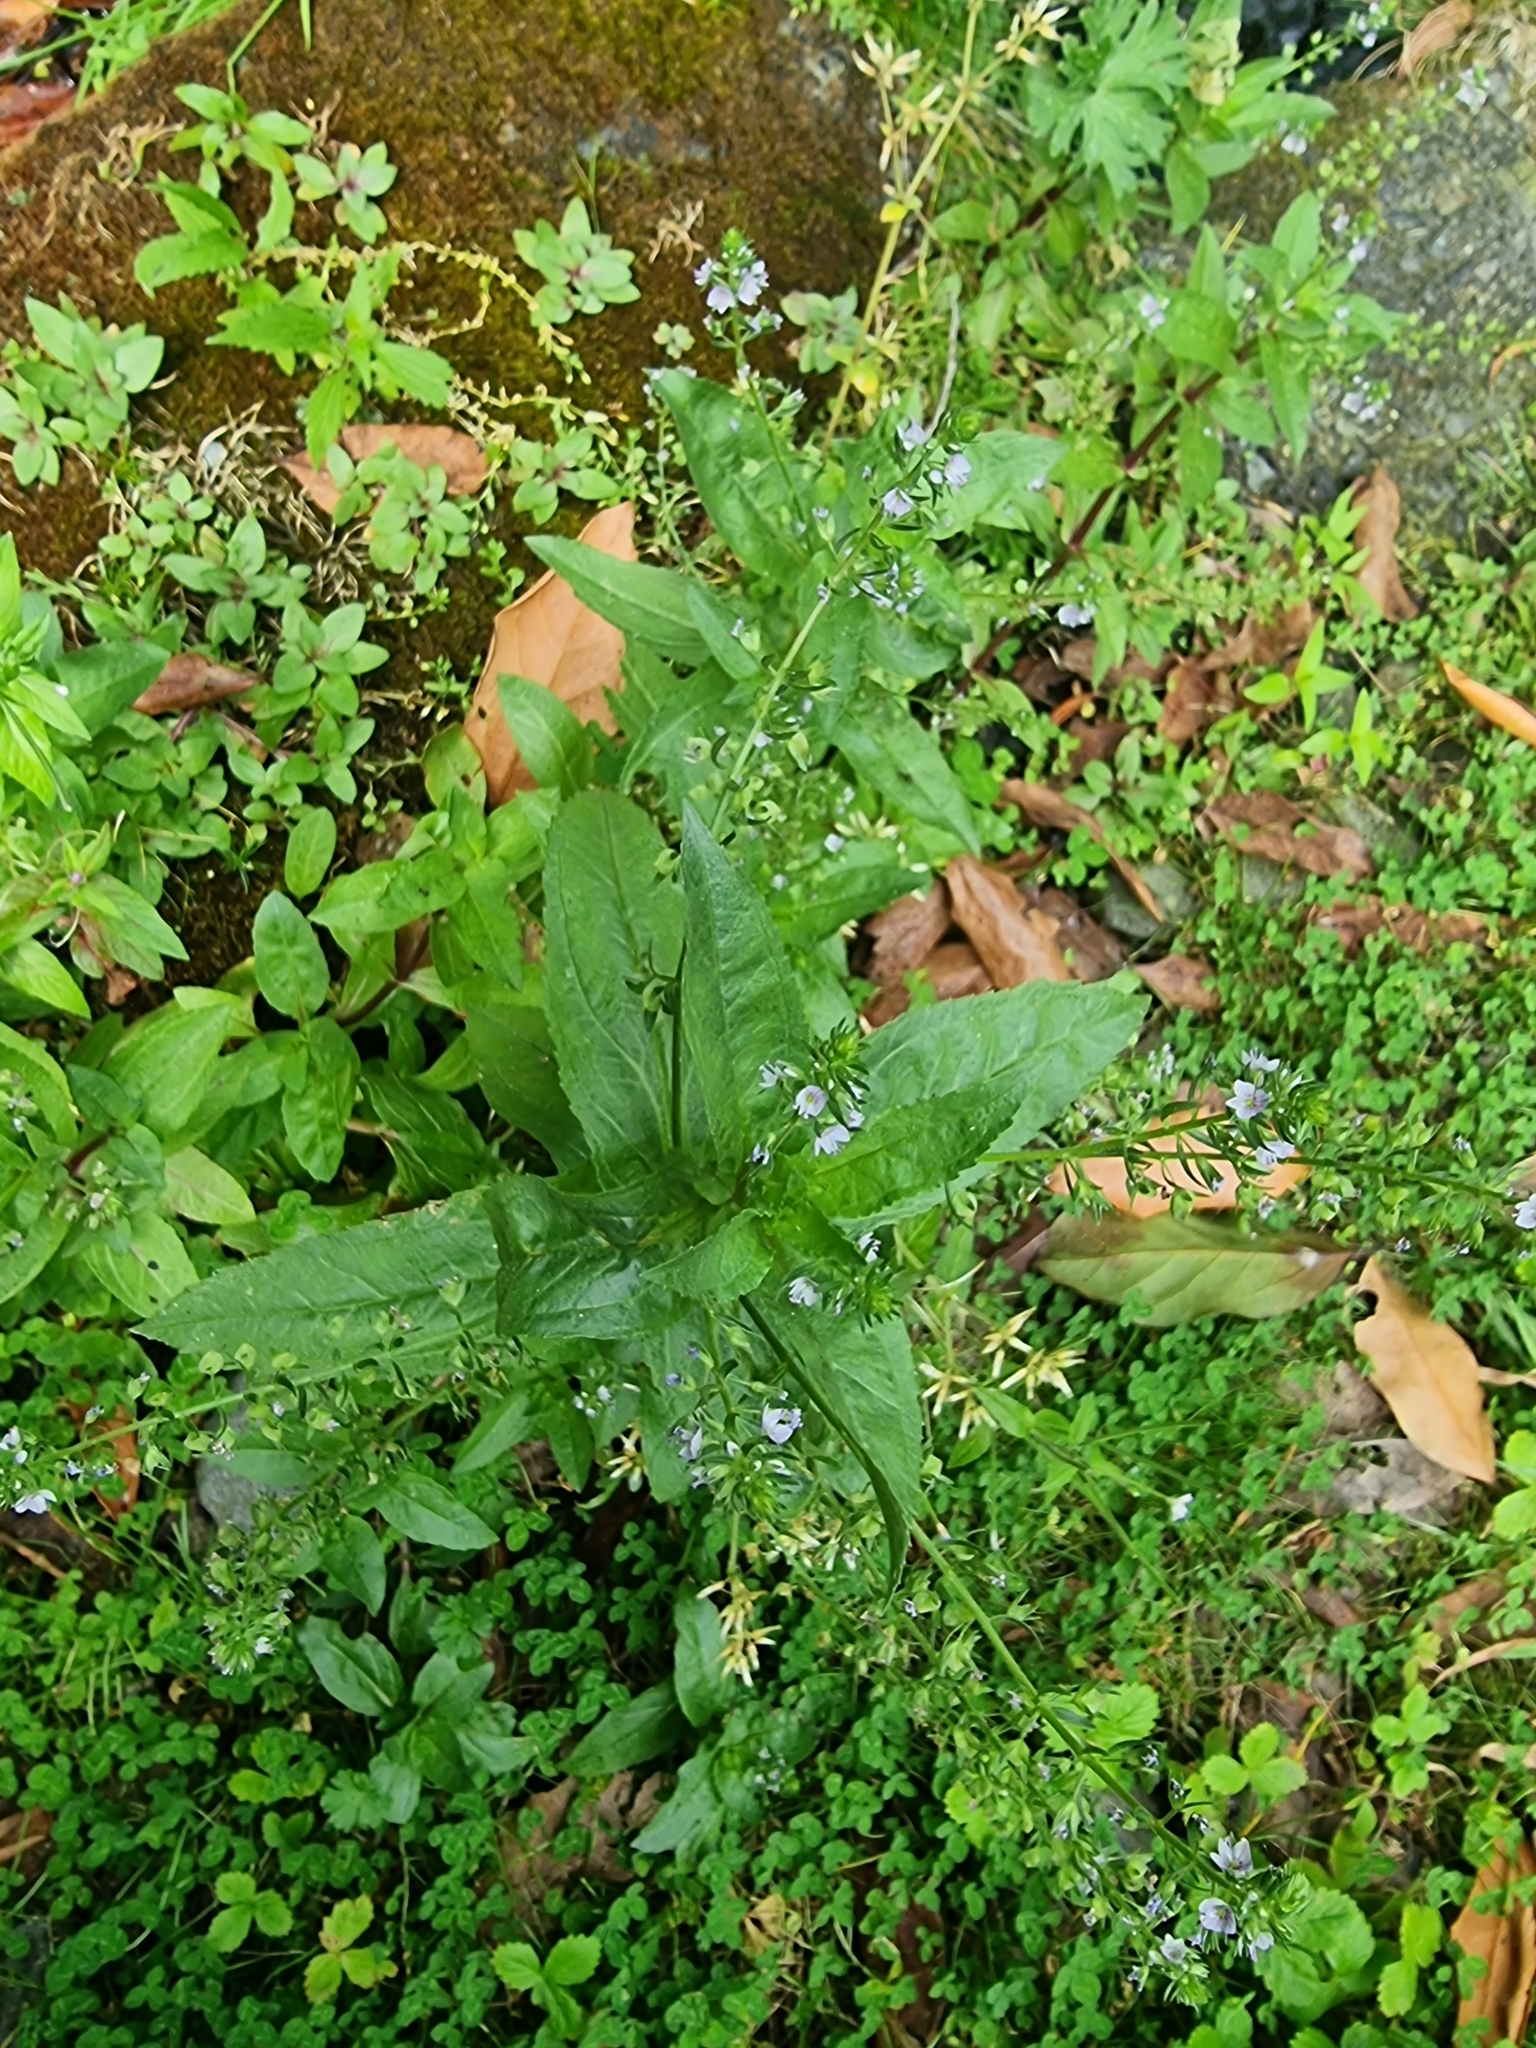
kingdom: Plantae
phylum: Tracheophyta
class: Magnoliopsida
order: Lamiales
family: Plantaginaceae
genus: Veronica
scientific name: Veronica anagallis-aquatica
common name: Water speedwell
